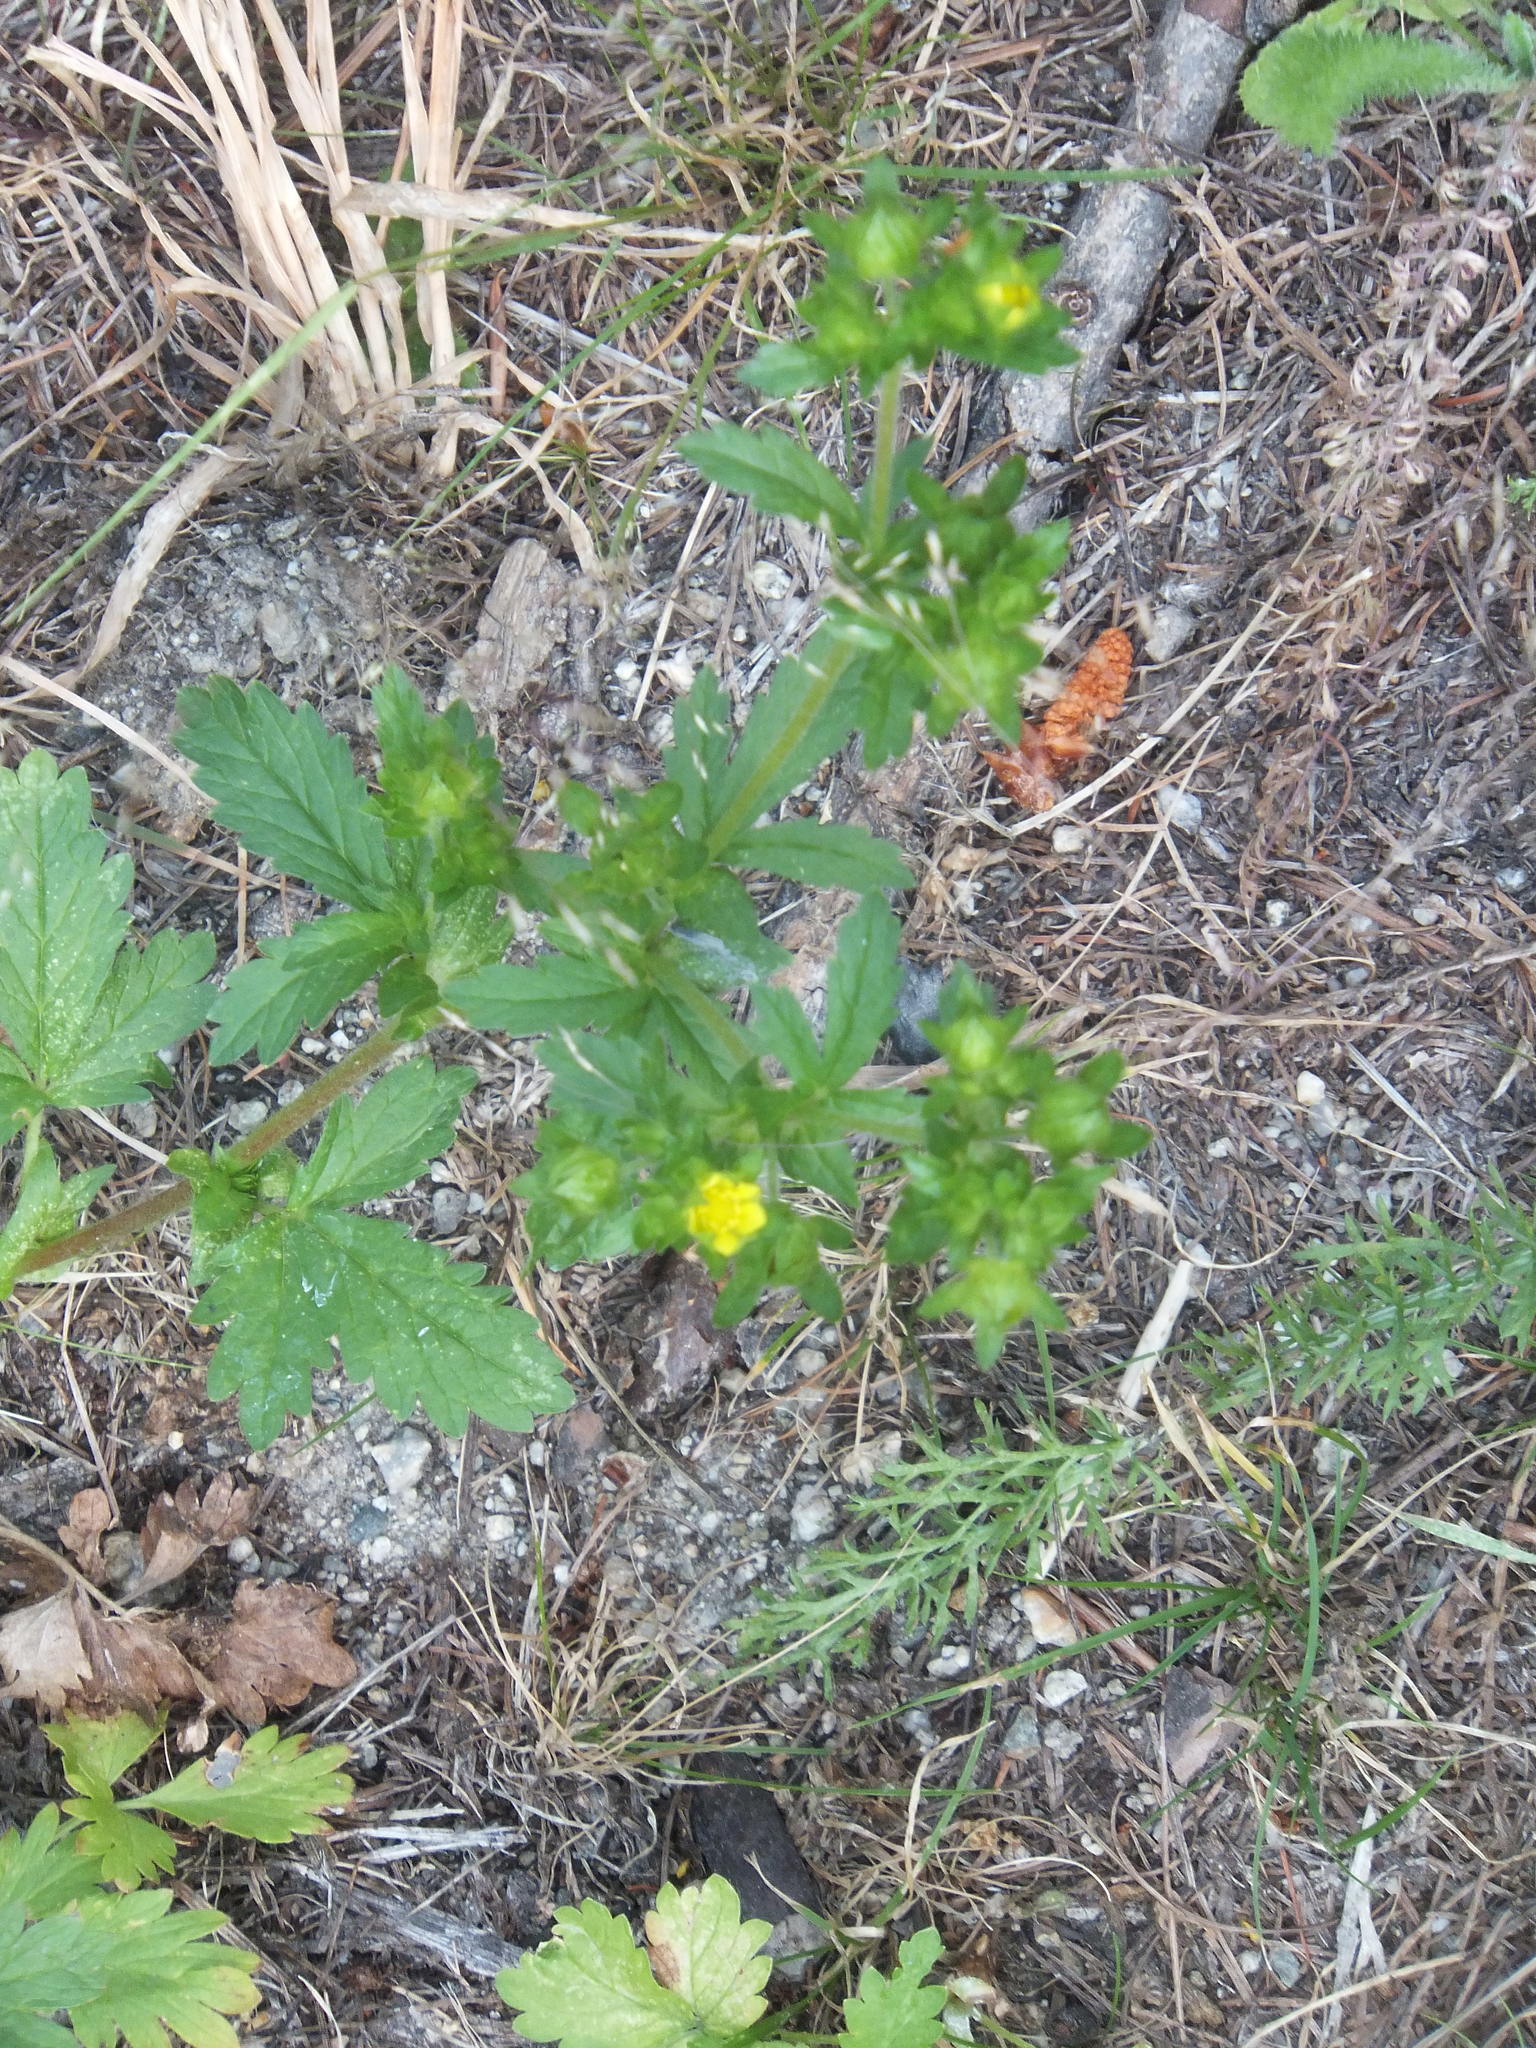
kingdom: Plantae
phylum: Tracheophyta
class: Magnoliopsida
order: Rosales
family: Rosaceae
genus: Potentilla
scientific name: Potentilla norvegica
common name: Ternate-leaved cinquefoil
